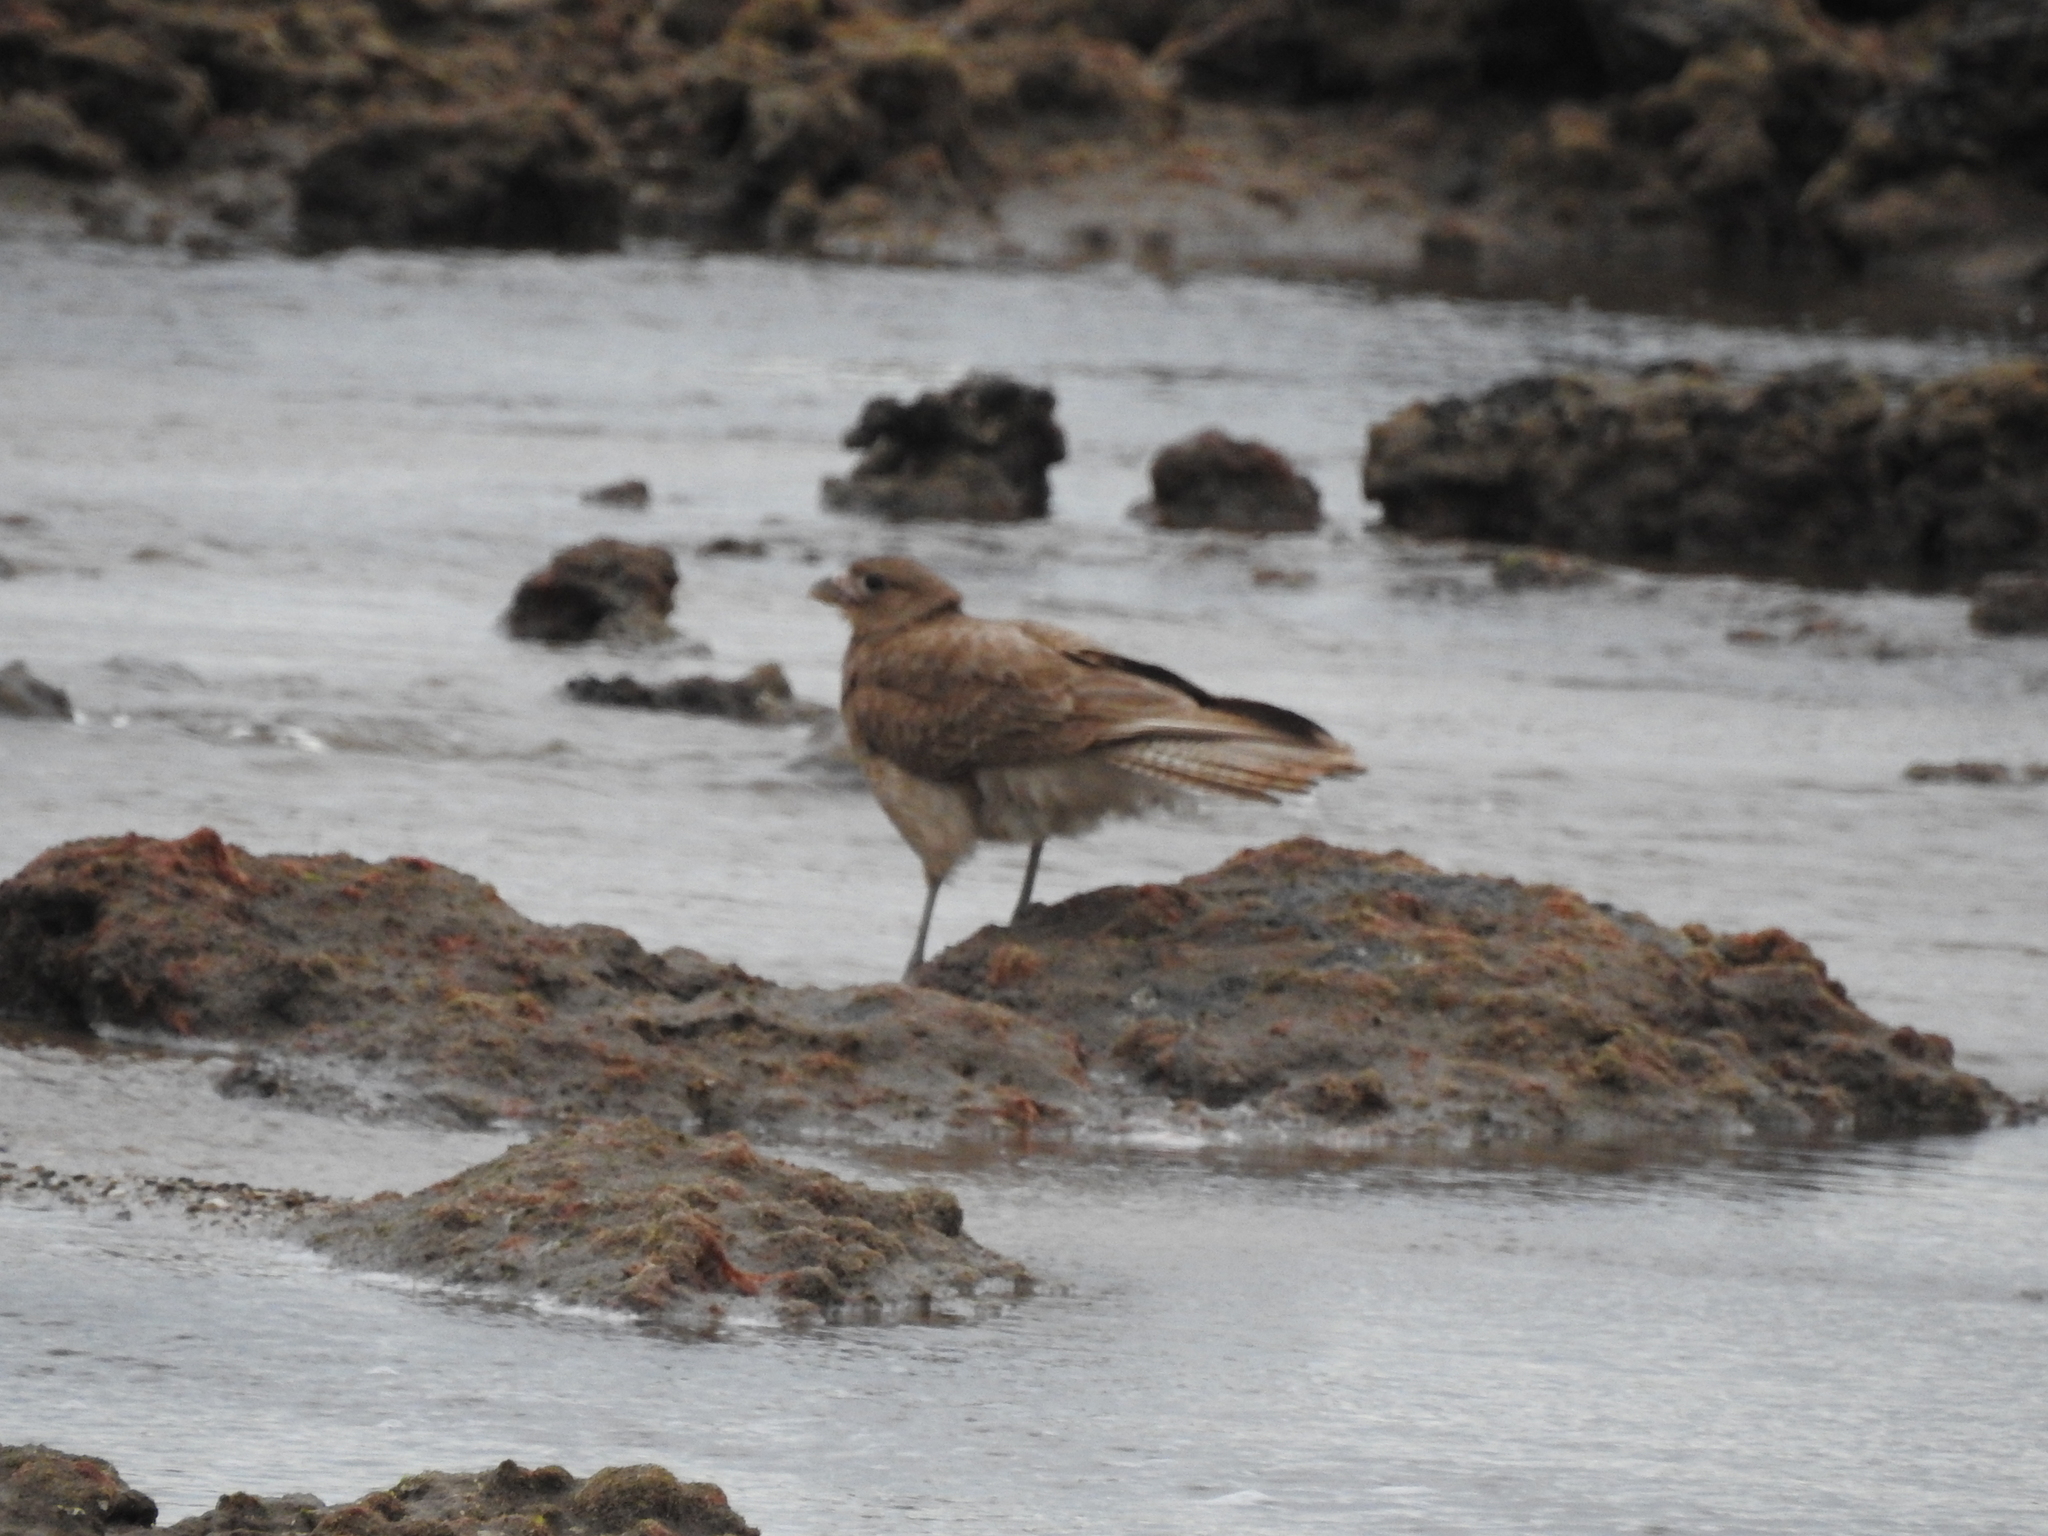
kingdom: Animalia
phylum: Chordata
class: Aves
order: Falconiformes
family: Falconidae
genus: Daptrius
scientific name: Daptrius
